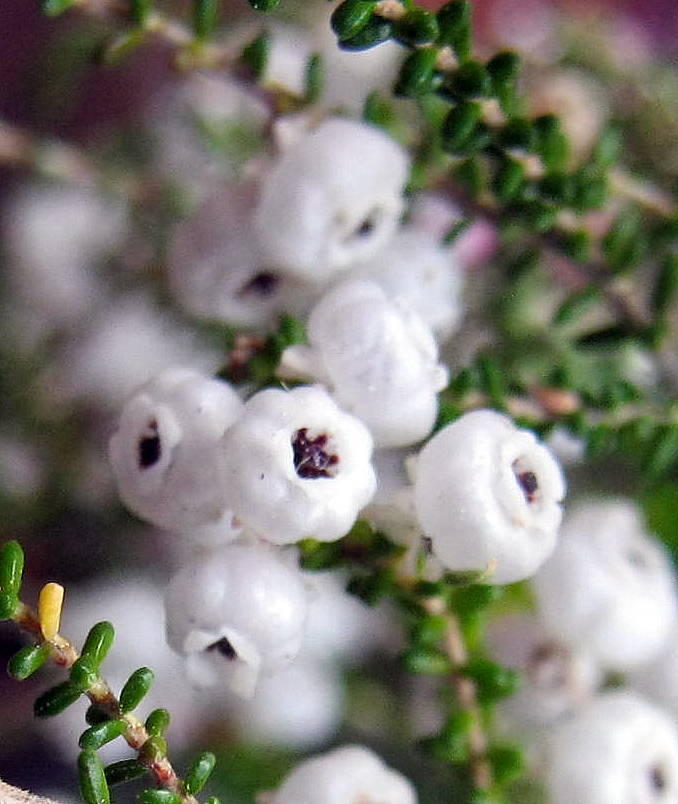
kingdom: Plantae
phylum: Tracheophyta
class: Magnoliopsida
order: Ericales
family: Ericaceae
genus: Erica
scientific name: Erica formosa
